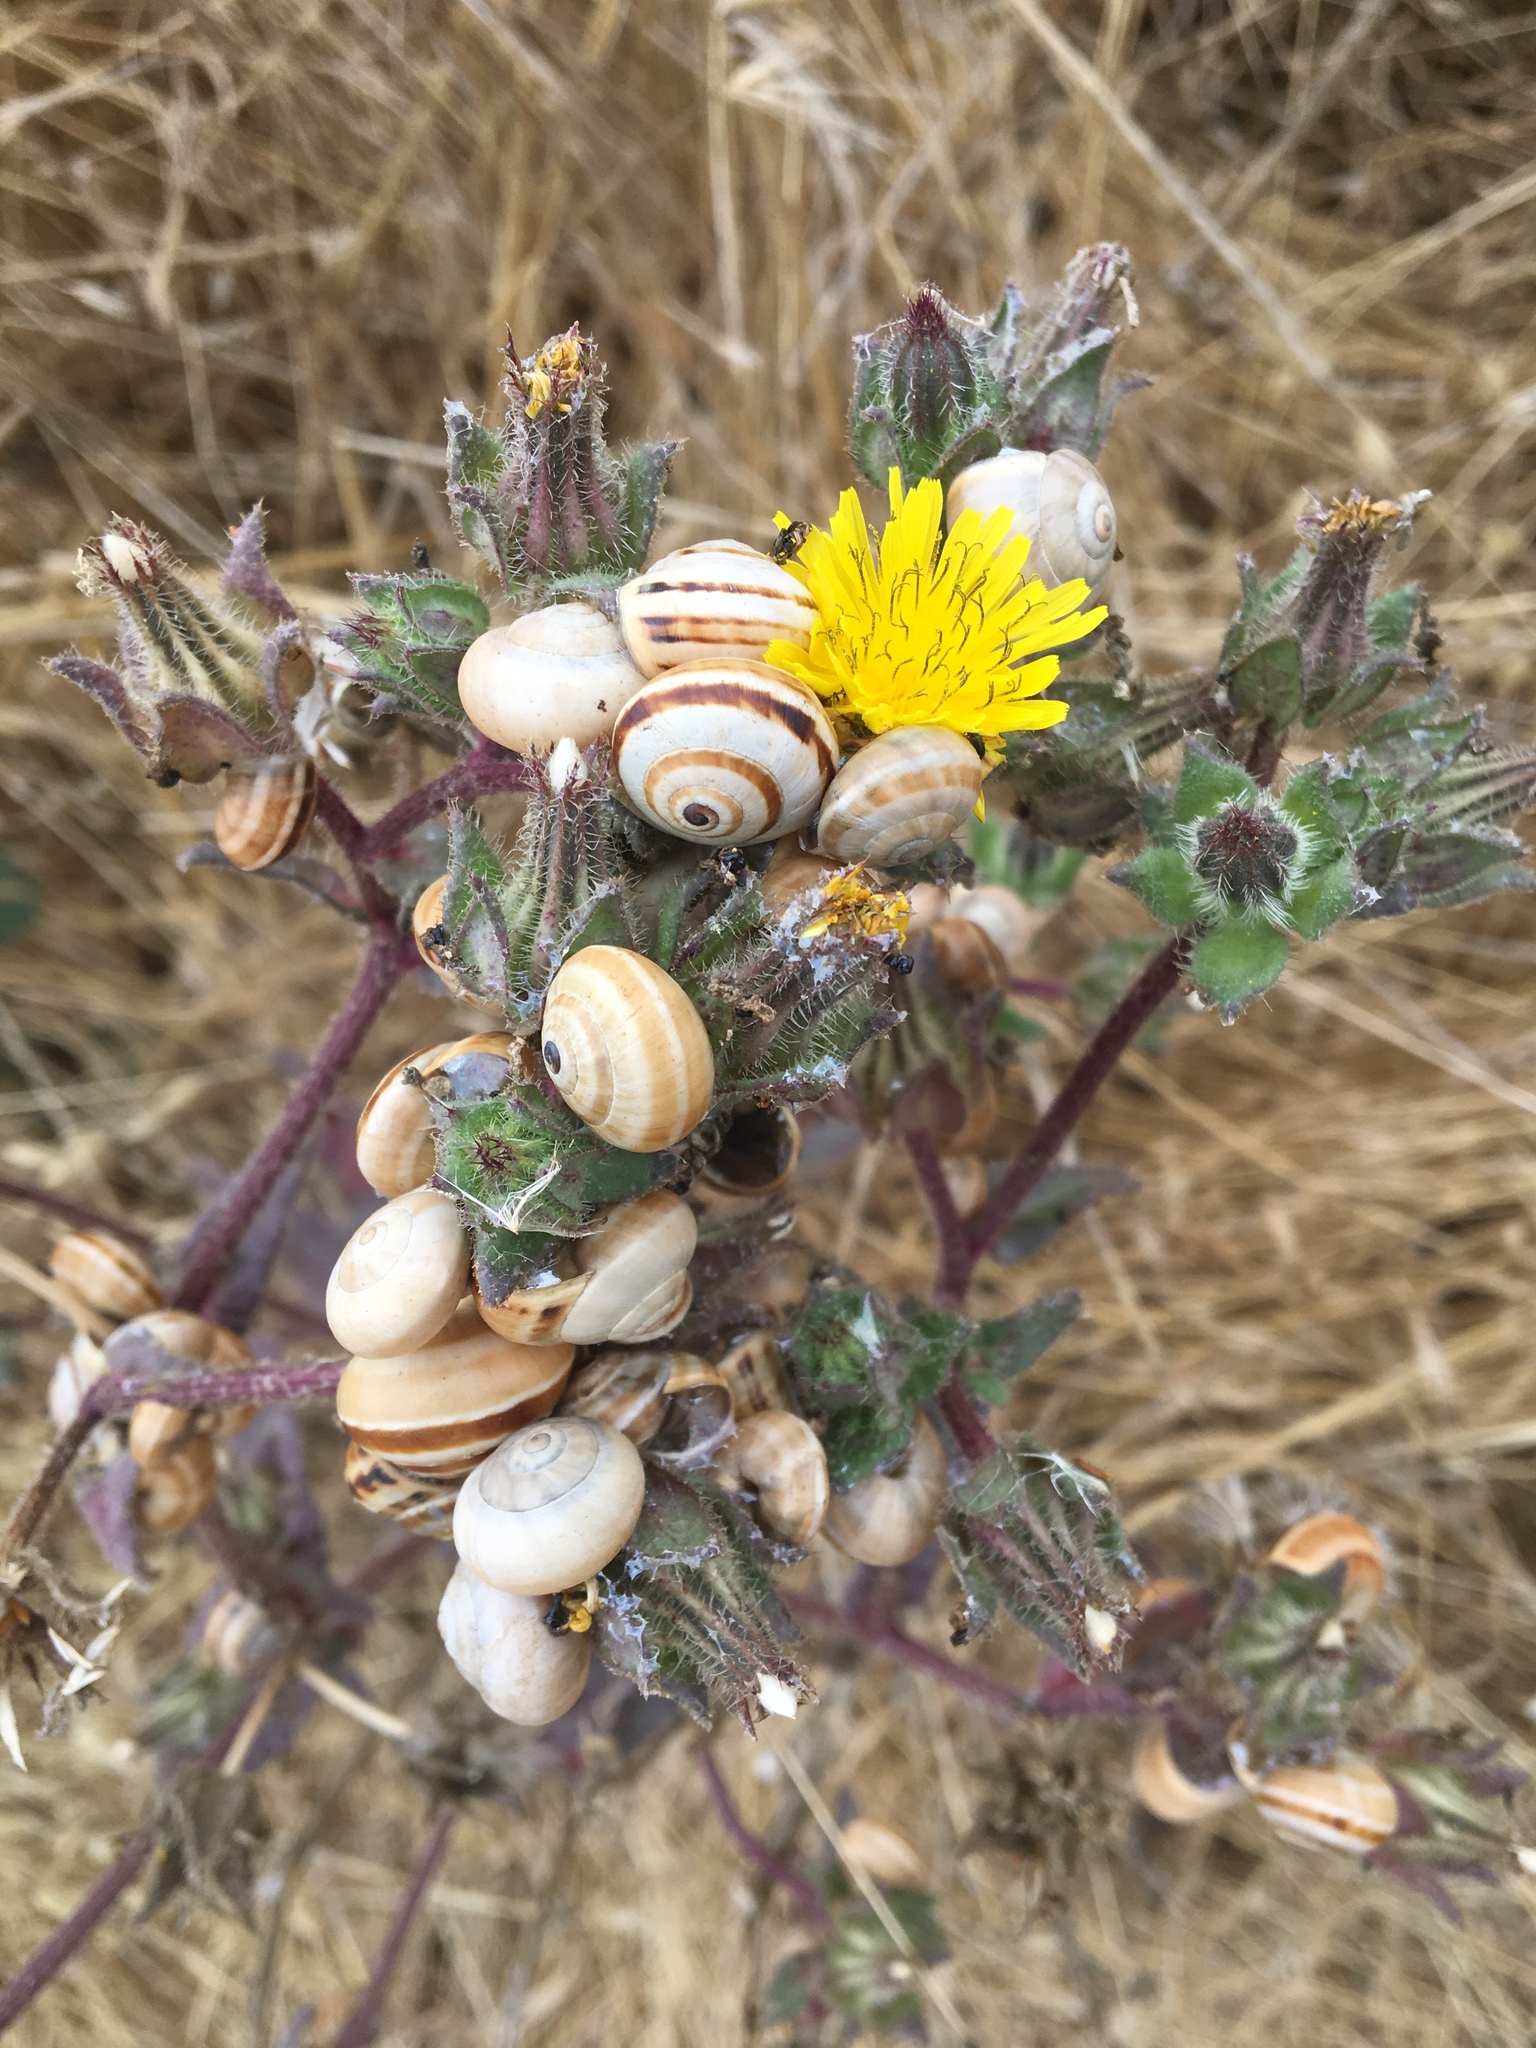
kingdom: Plantae
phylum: Tracheophyta
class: Magnoliopsida
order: Asterales
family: Asteraceae
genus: Helminthotheca
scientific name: Helminthotheca echioides
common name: Ox-tongue
